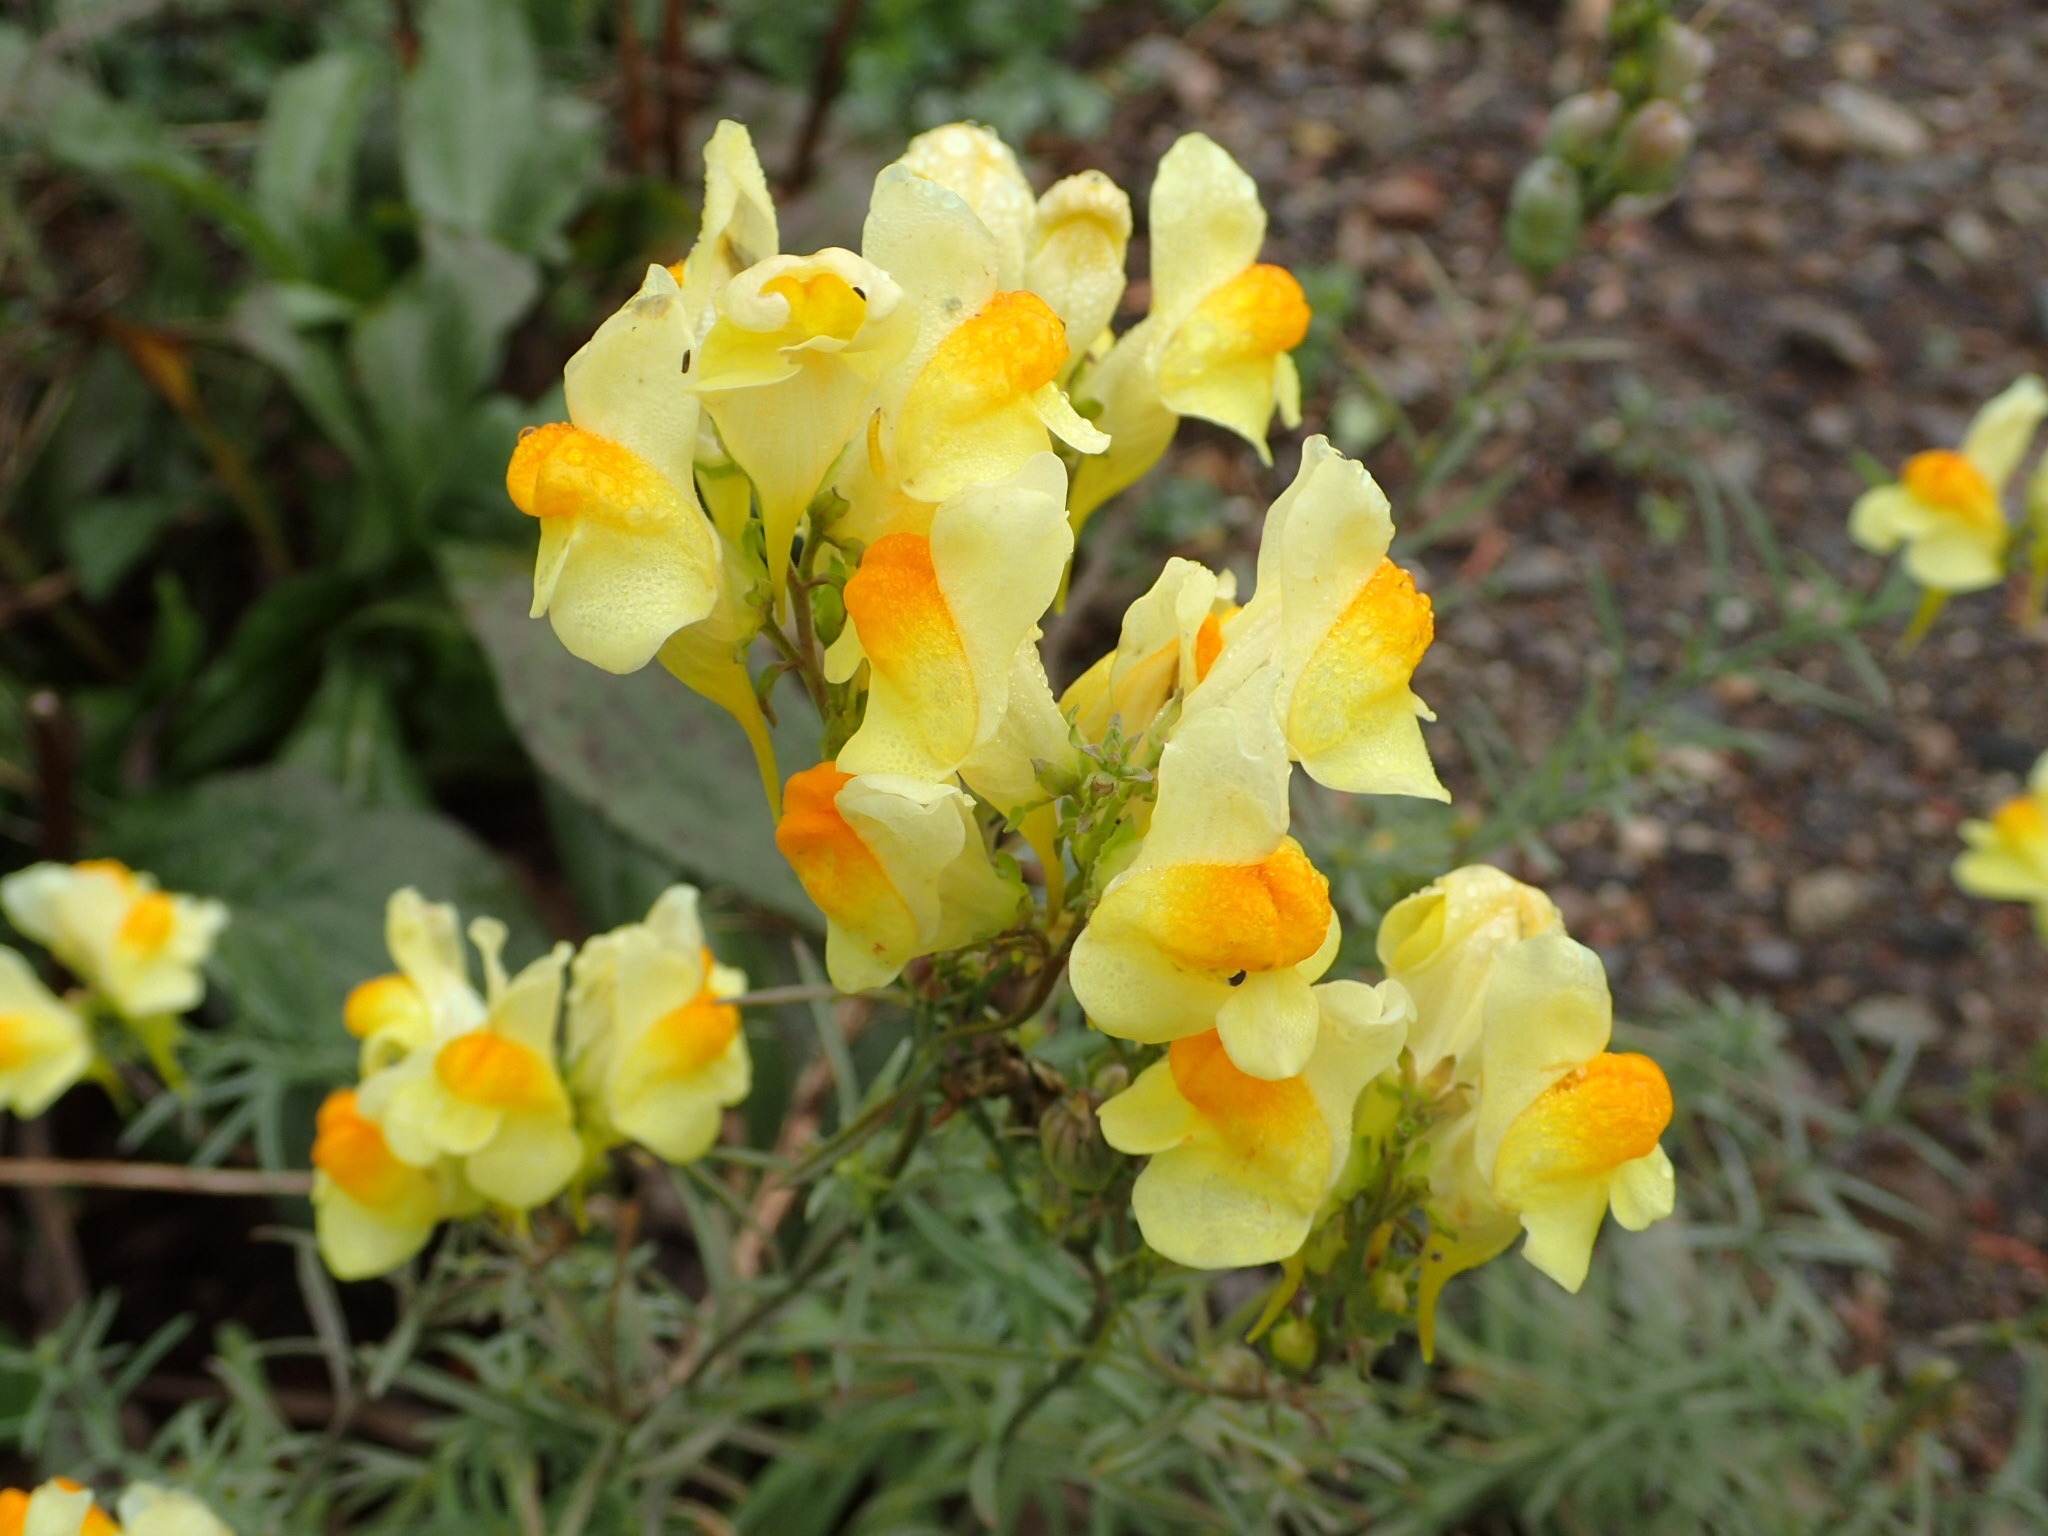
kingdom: Plantae
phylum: Tracheophyta
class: Magnoliopsida
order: Lamiales
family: Plantaginaceae
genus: Linaria
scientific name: Linaria vulgaris
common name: Butter and eggs
